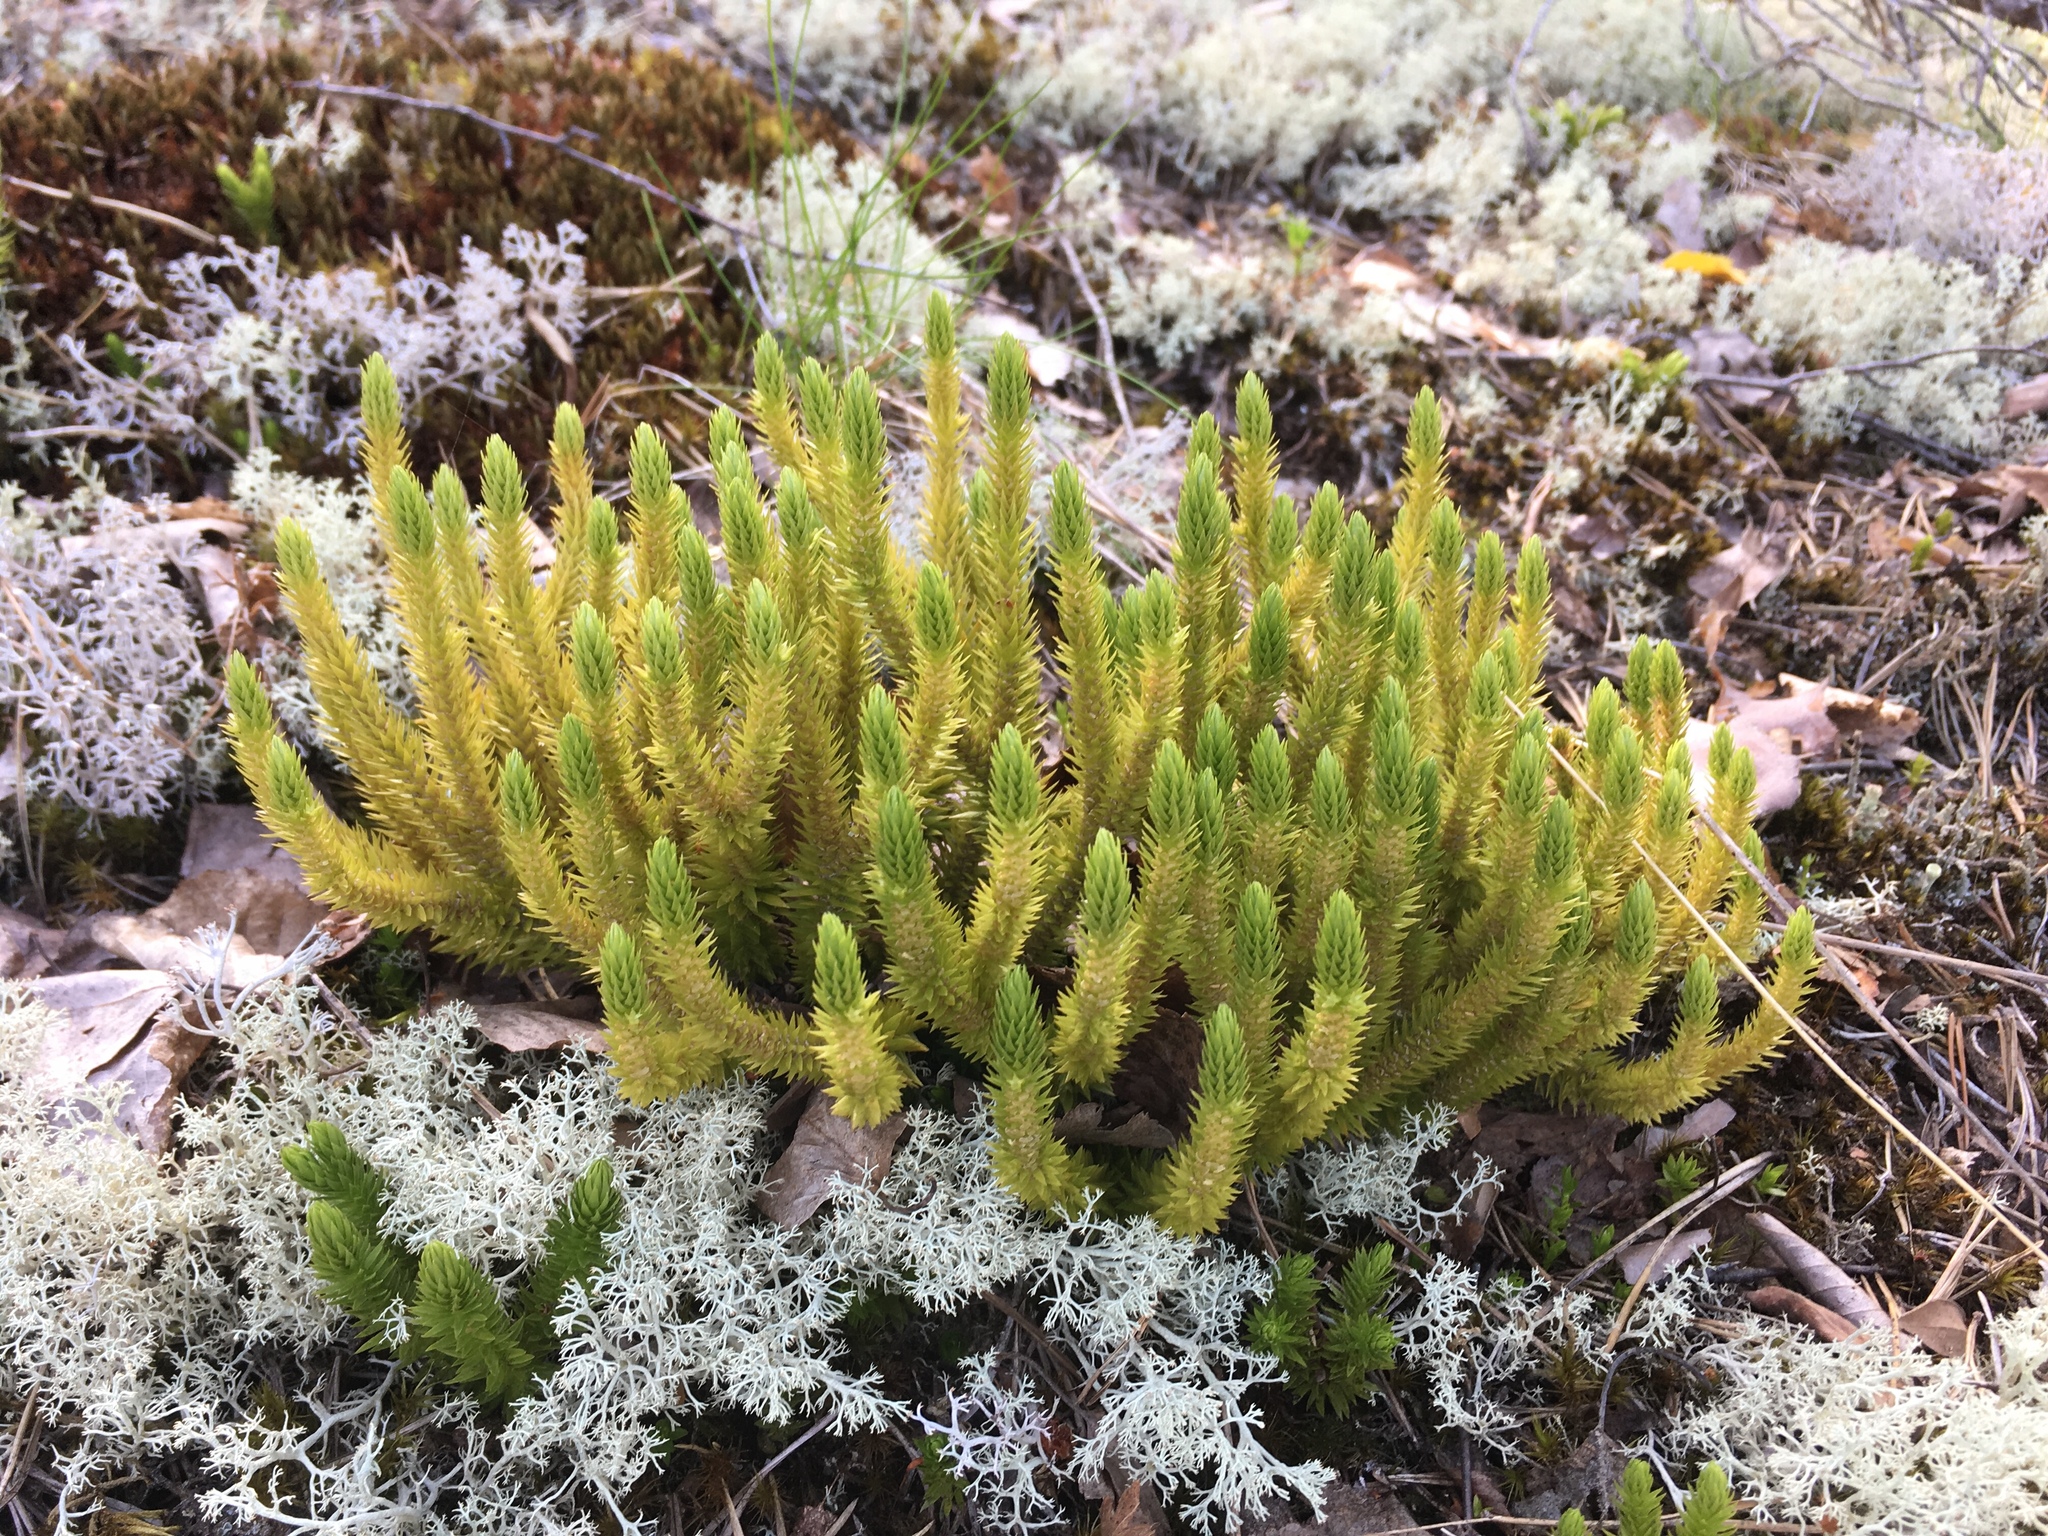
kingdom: Plantae
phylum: Tracheophyta
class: Lycopodiopsida
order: Lycopodiales
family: Lycopodiaceae
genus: Huperzia
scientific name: Huperzia selago
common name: Northern firmoss
